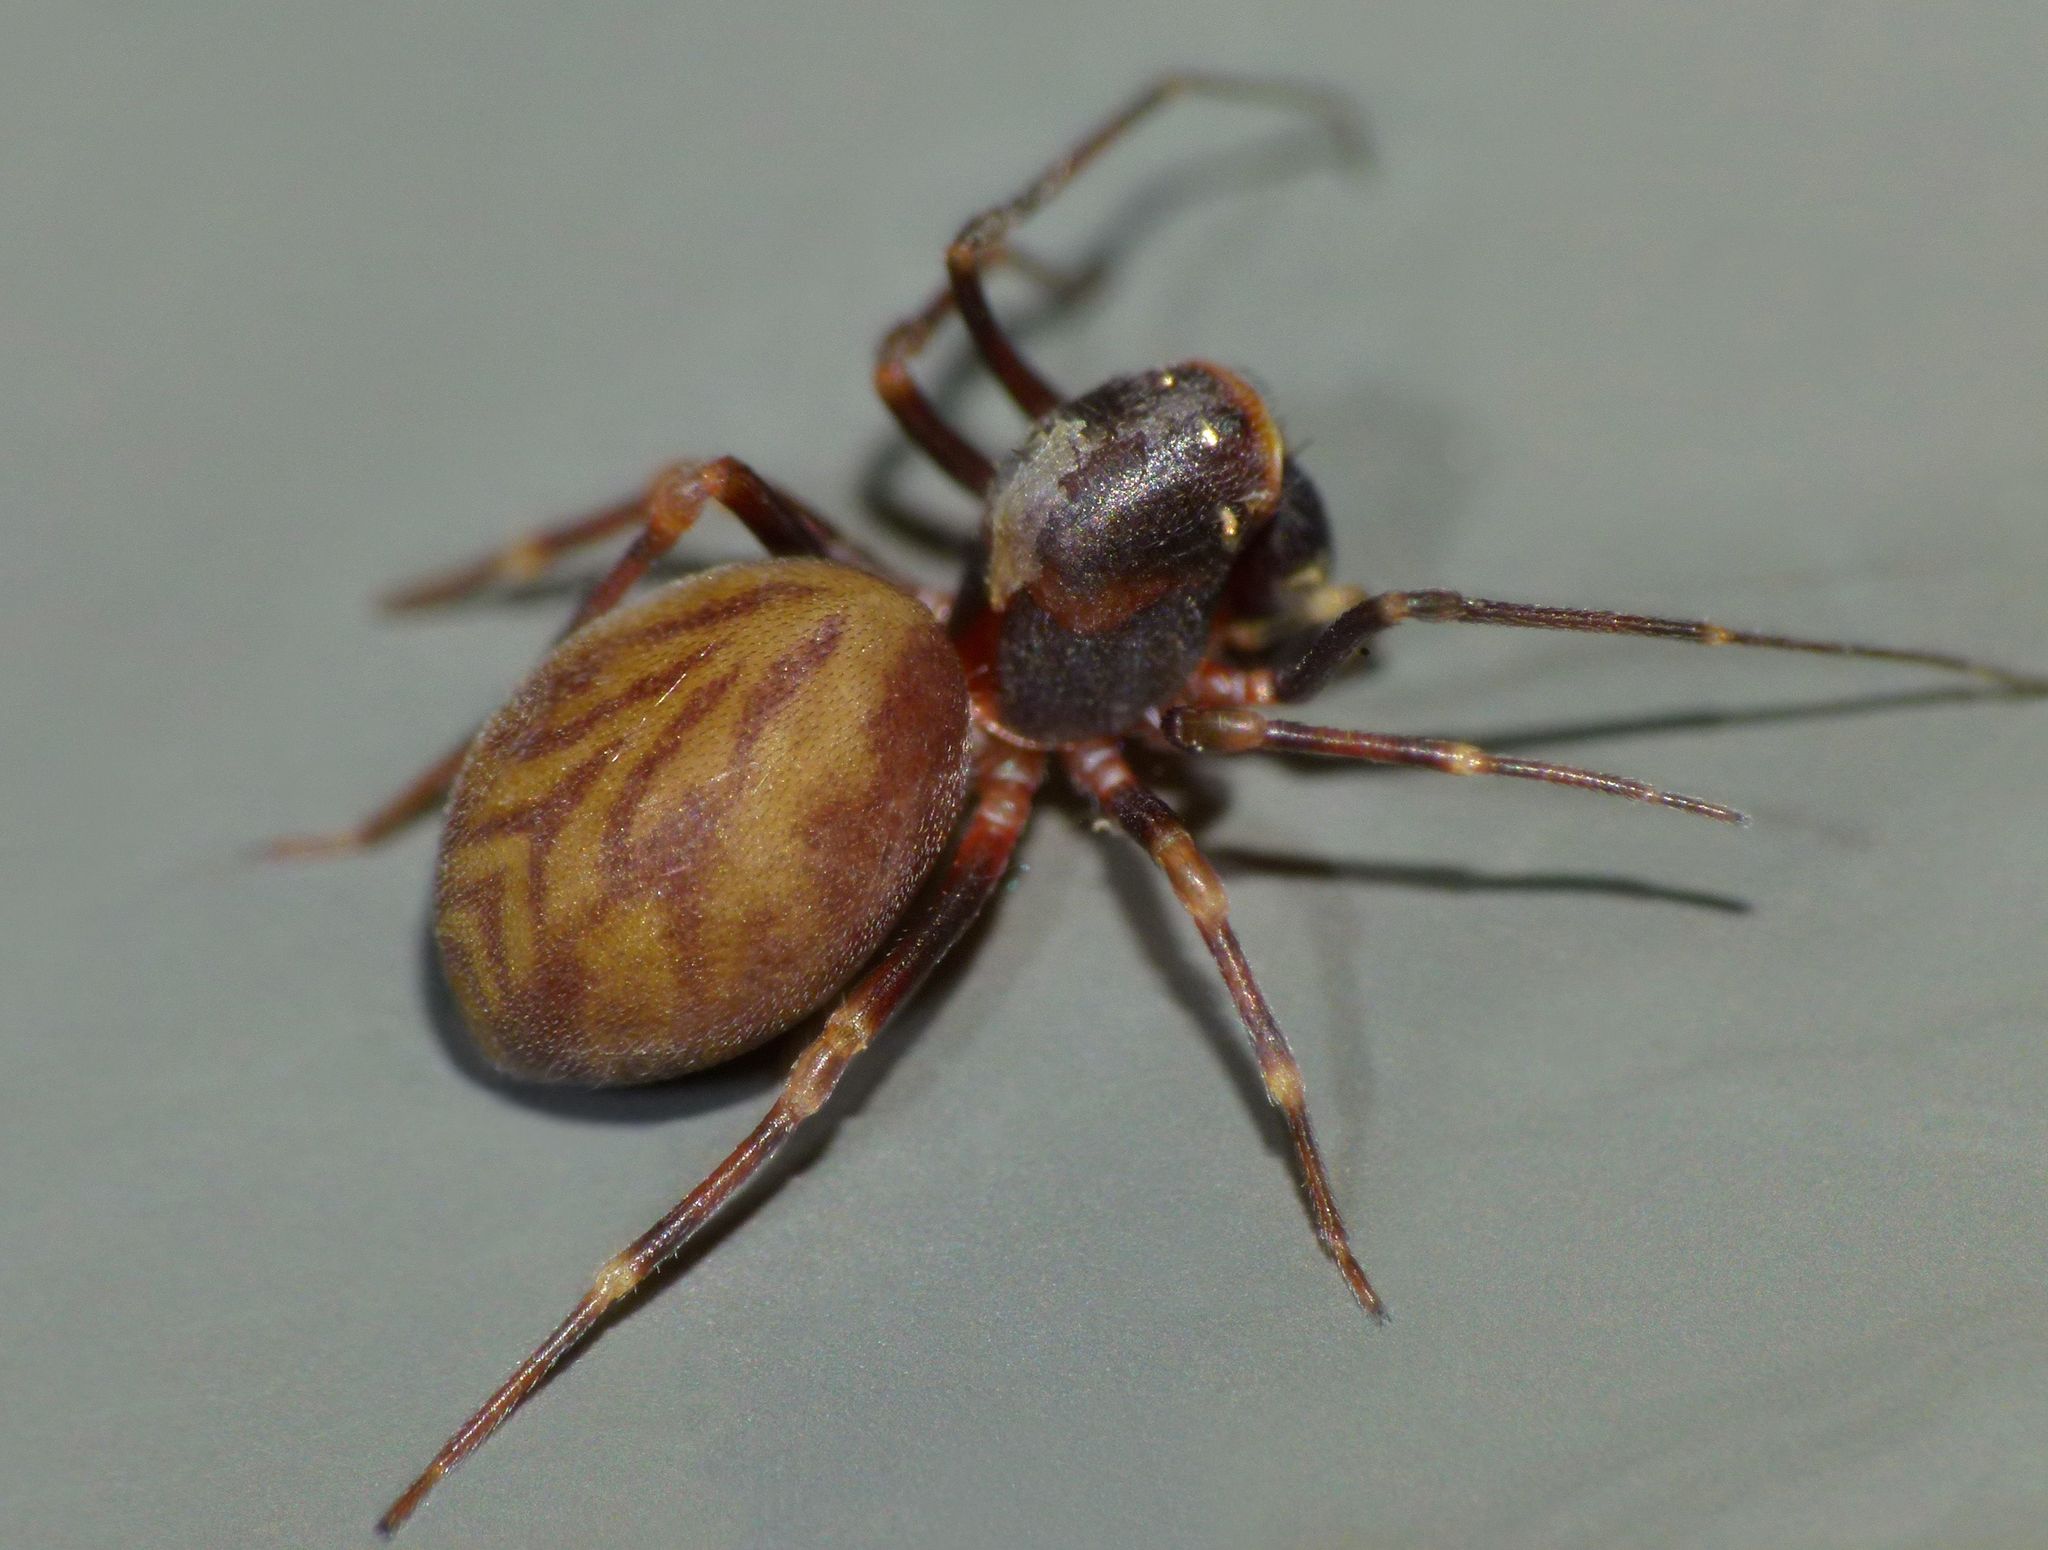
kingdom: Animalia
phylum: Arthropoda
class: Arachnida
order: Araneae
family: Mecysmaucheniidae
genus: Aotearoa
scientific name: Aotearoa magna
